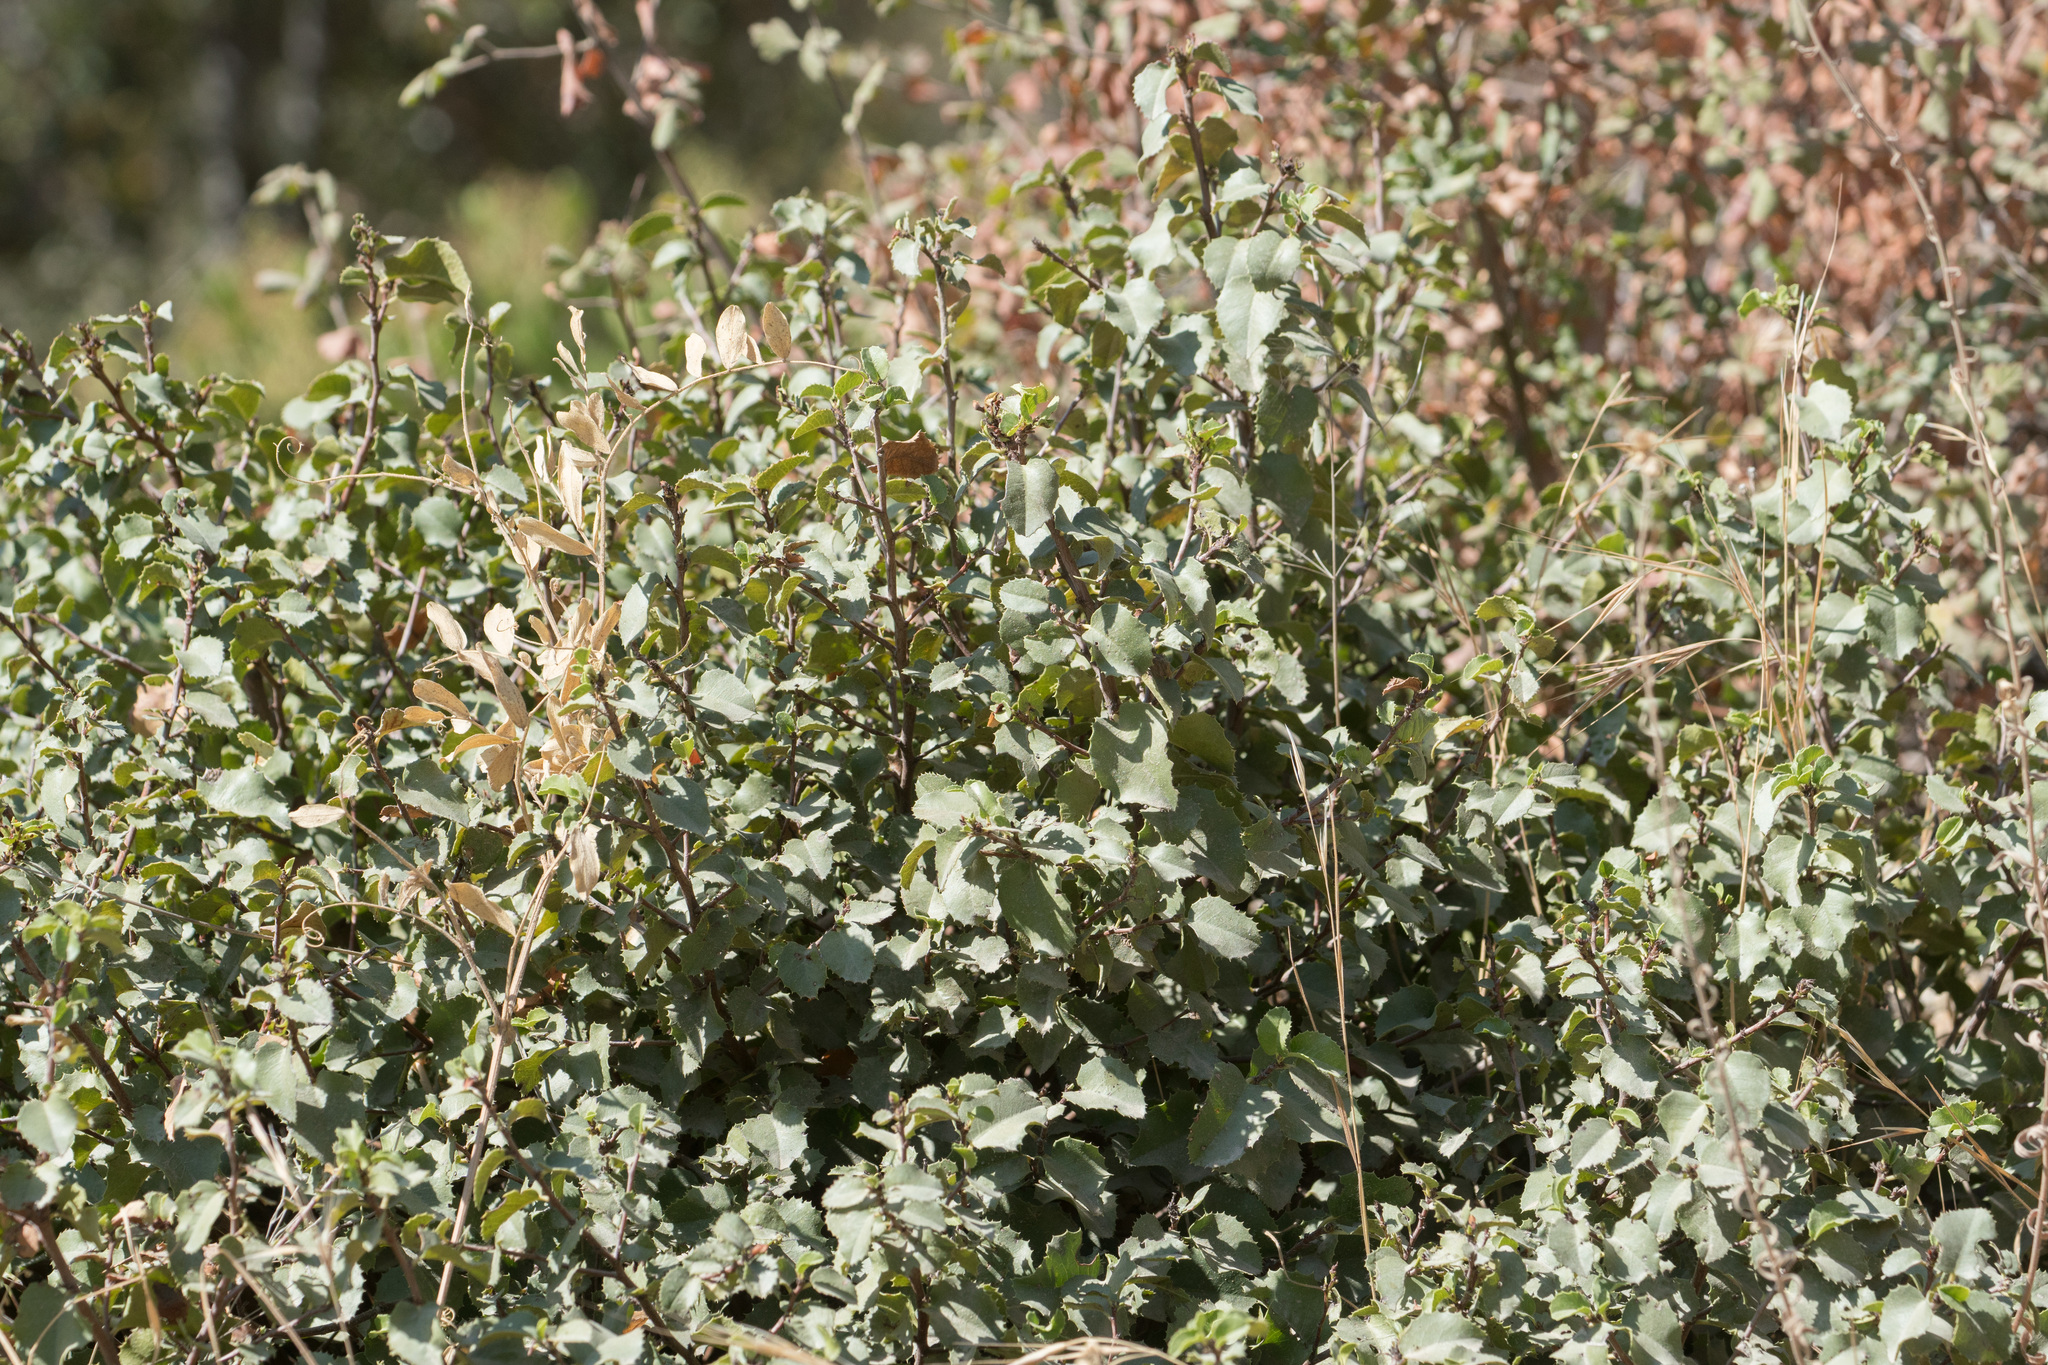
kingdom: Plantae
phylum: Tracheophyta
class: Magnoliopsida
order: Rosales
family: Rosaceae
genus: Prunus
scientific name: Prunus ilicifolia
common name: Hollyleaf cherry
